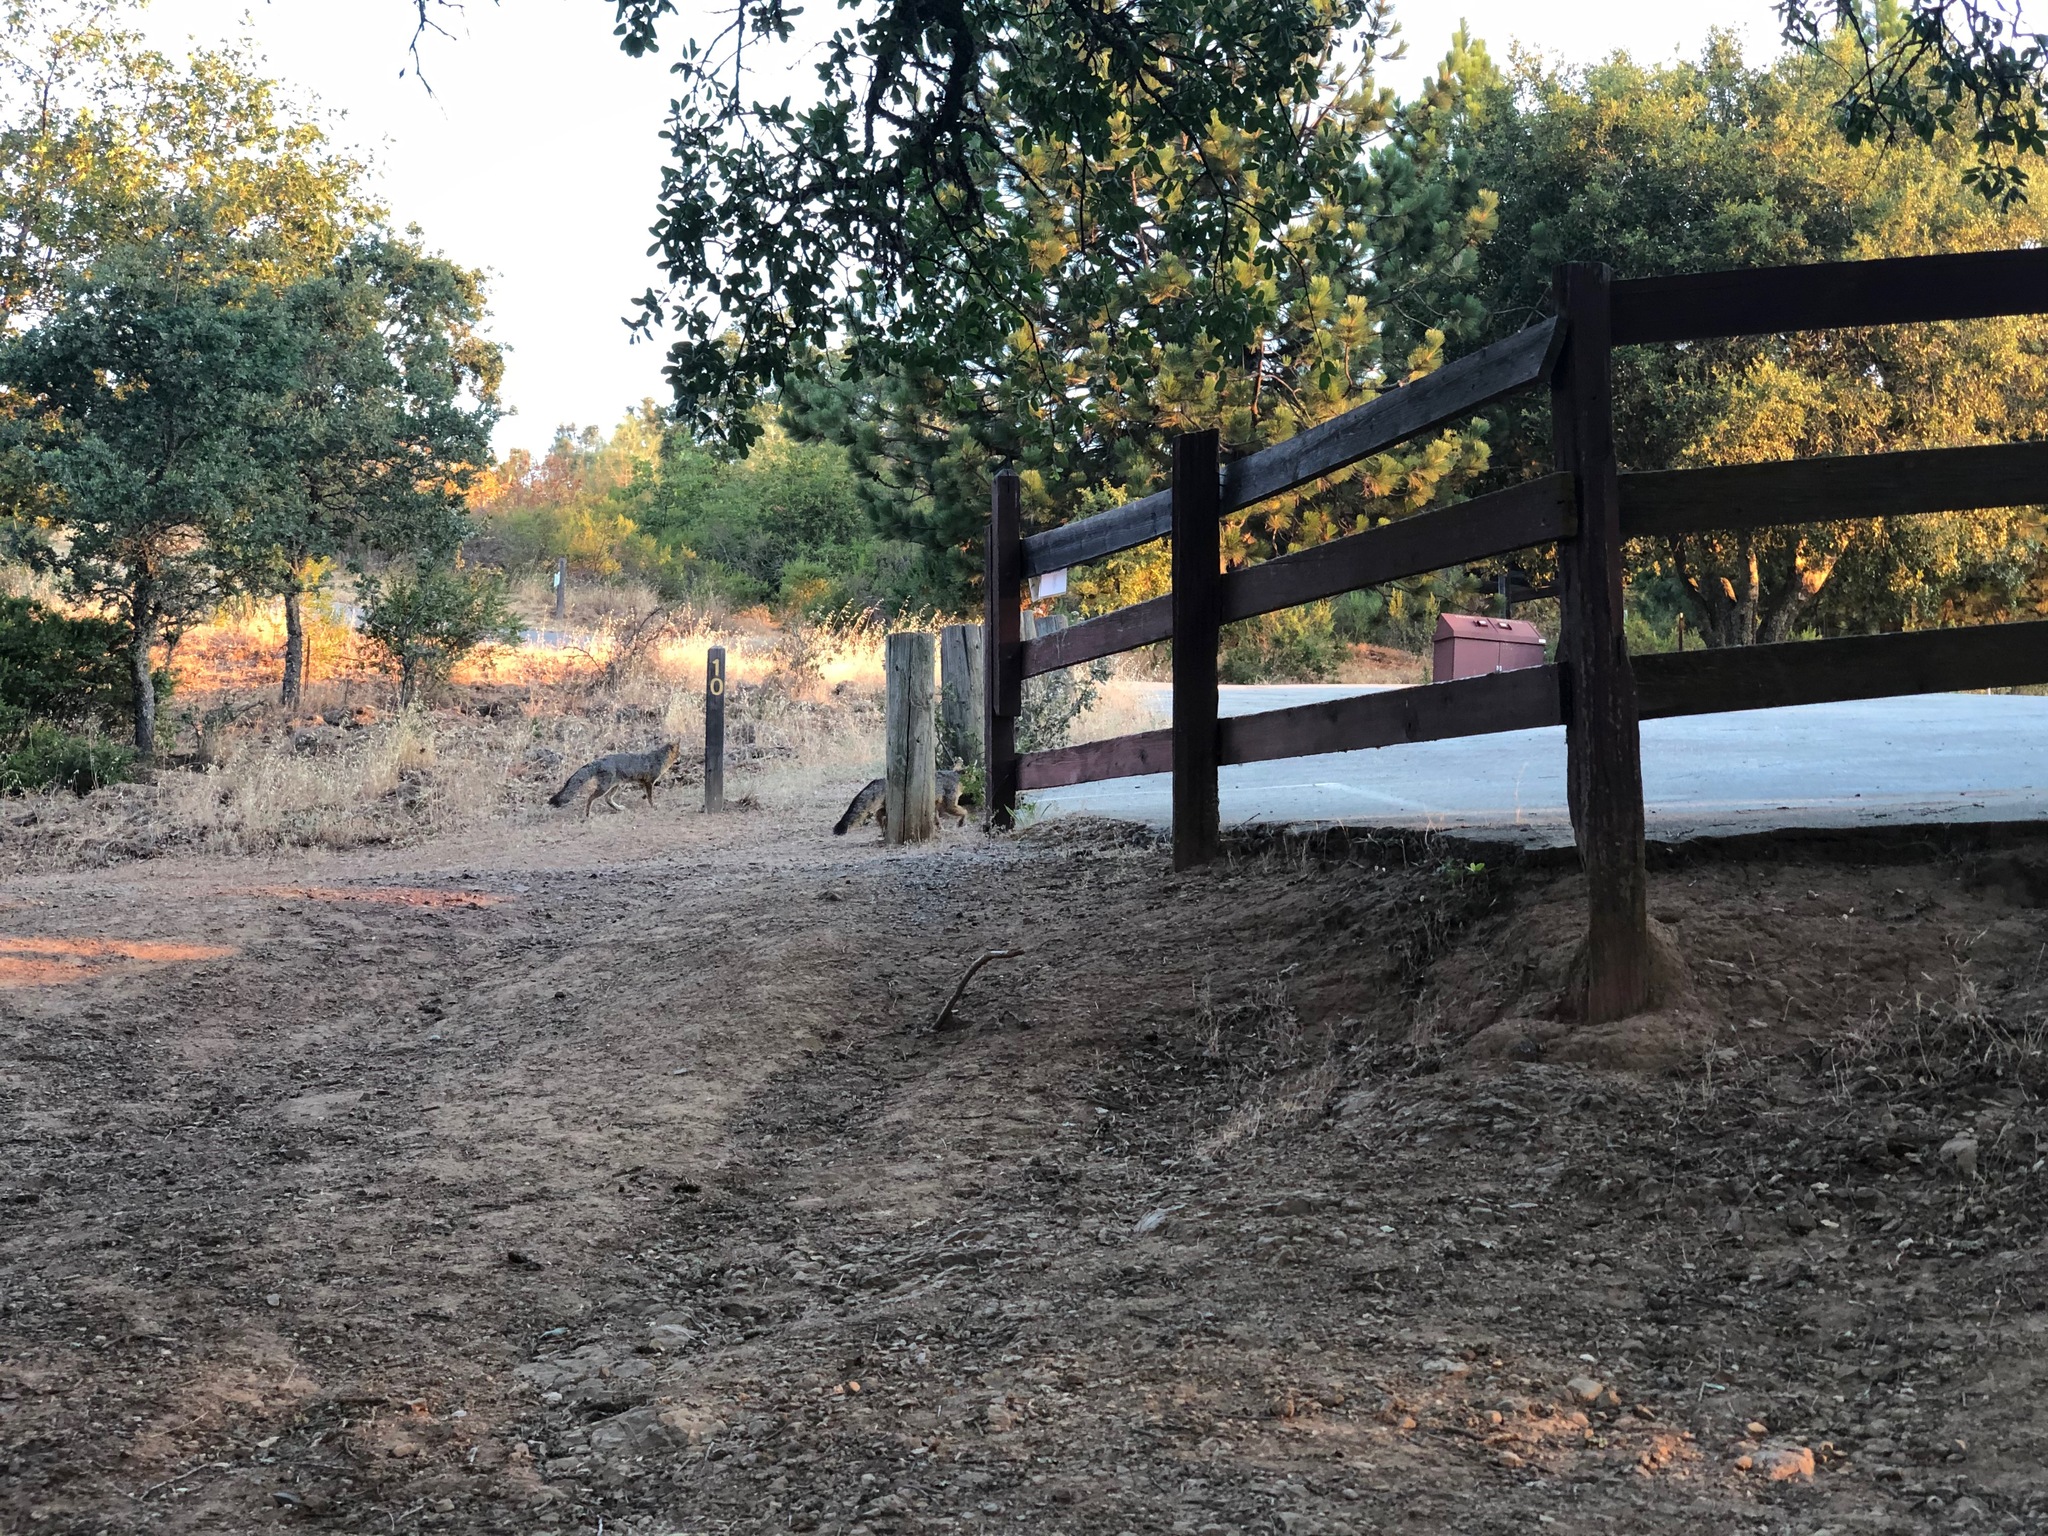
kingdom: Animalia
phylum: Chordata
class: Mammalia
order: Carnivora
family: Canidae
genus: Urocyon
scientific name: Urocyon cinereoargenteus
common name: Gray fox
